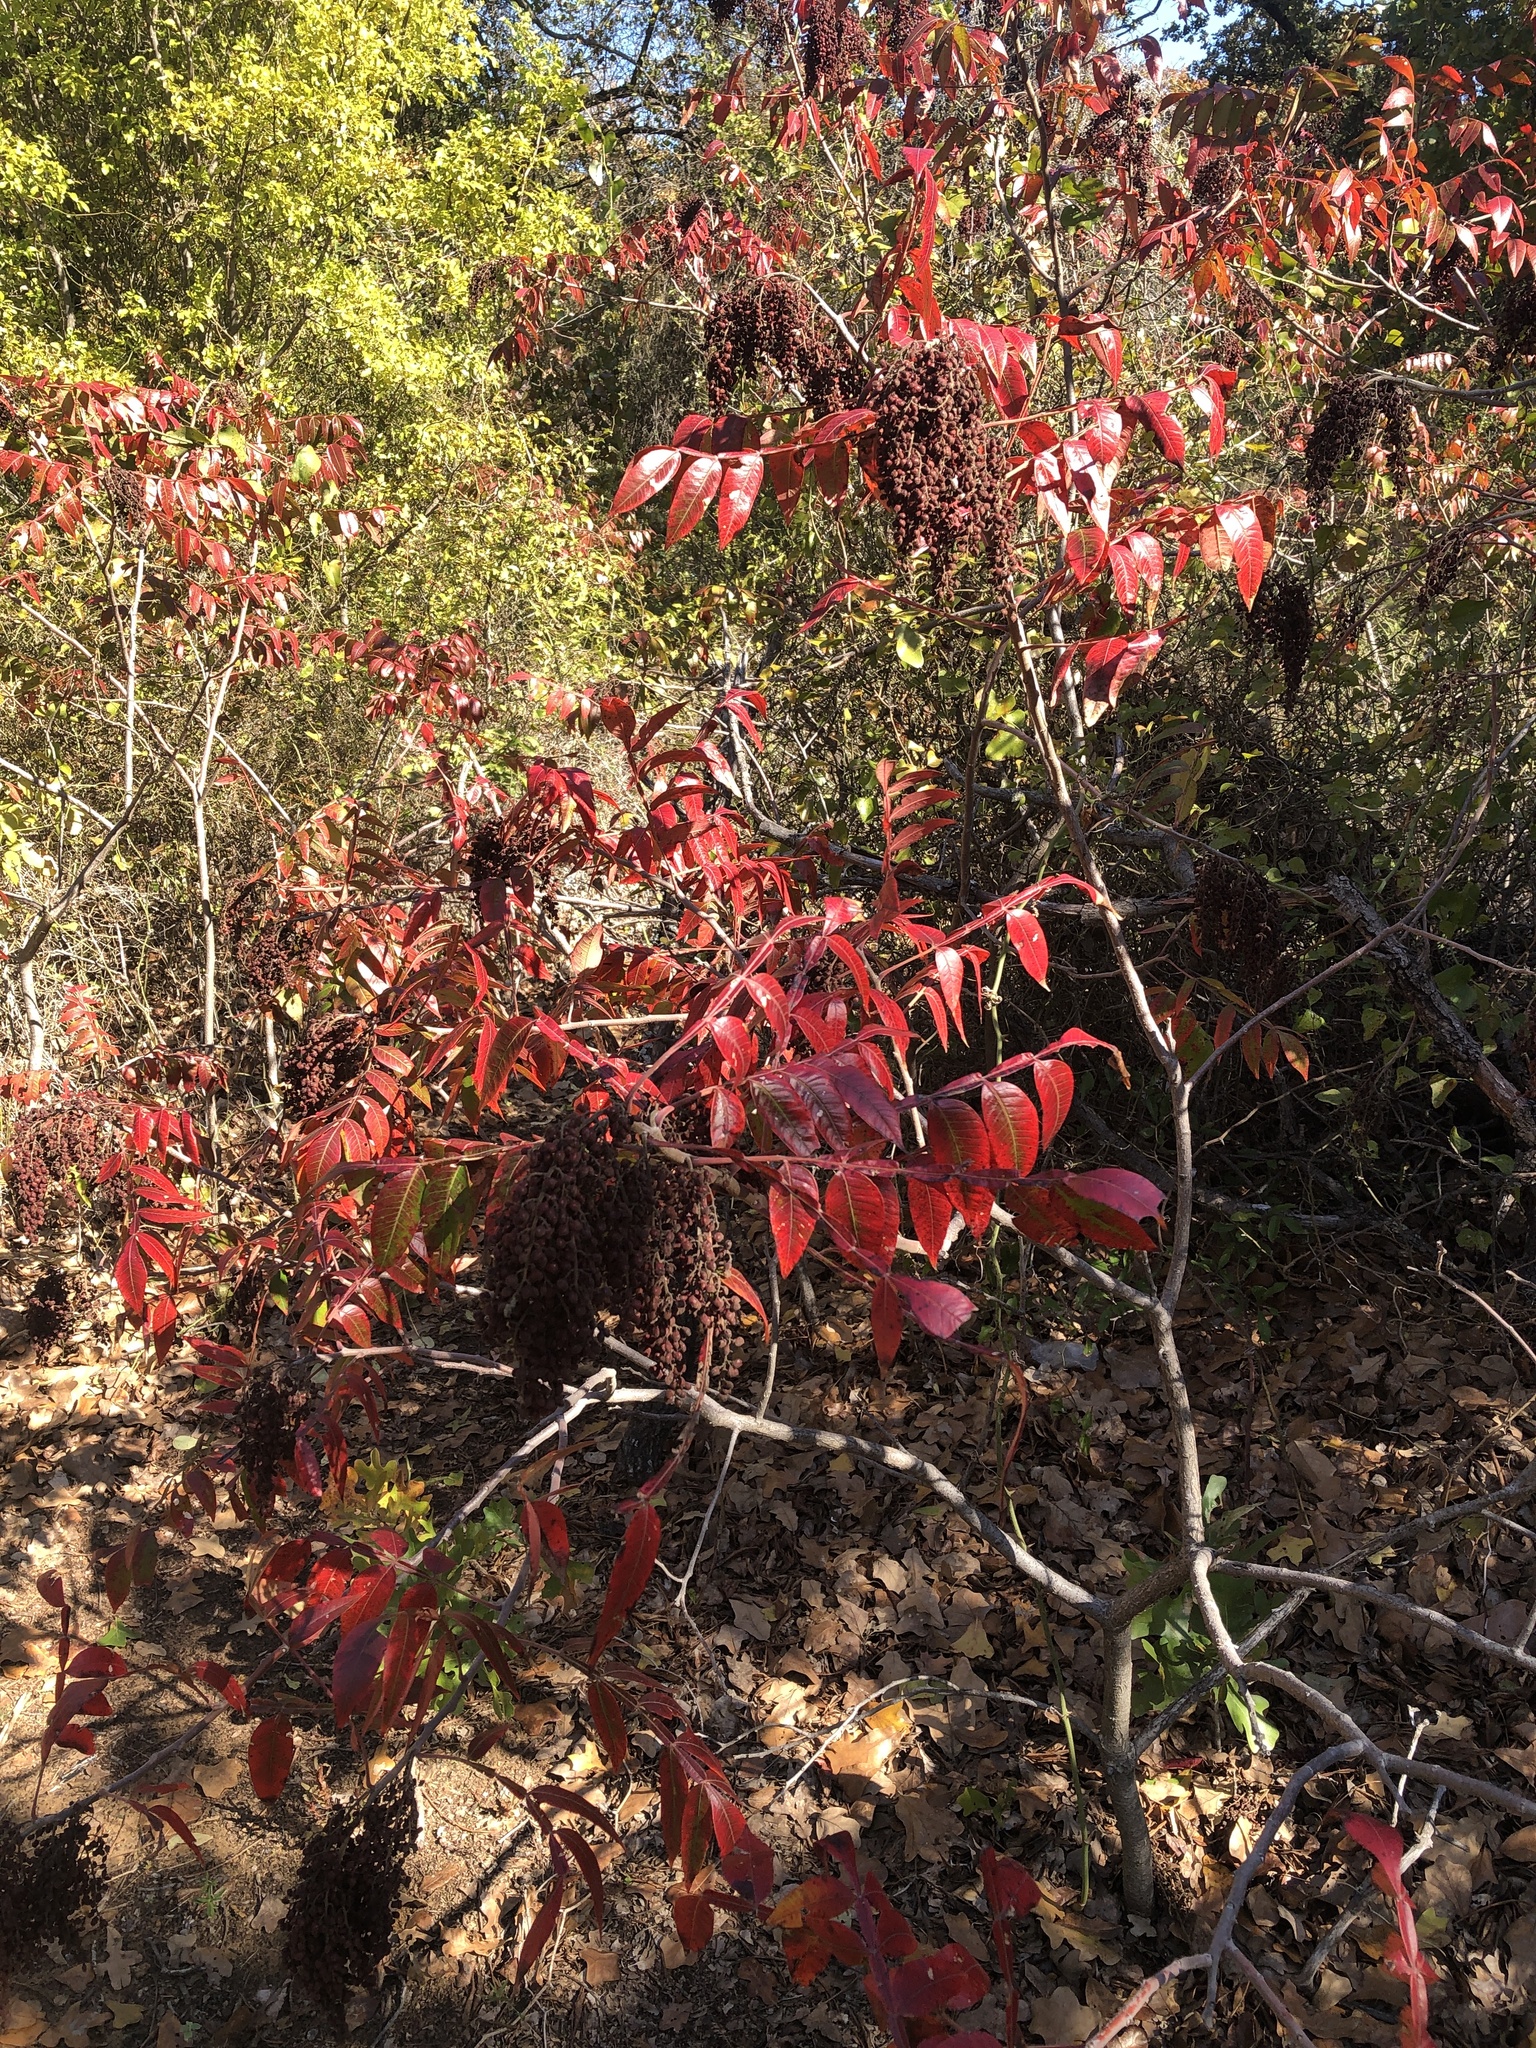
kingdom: Plantae
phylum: Tracheophyta
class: Magnoliopsida
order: Sapindales
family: Anacardiaceae
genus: Rhus
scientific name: Rhus copallina
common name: Shining sumac
